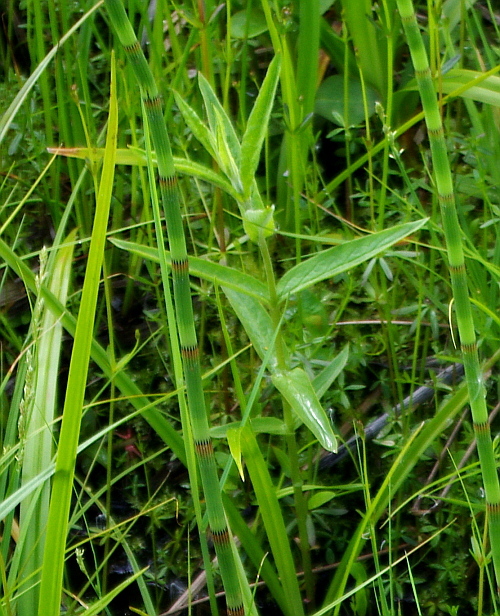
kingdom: Plantae
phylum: Tracheophyta
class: Magnoliopsida
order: Ericales
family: Primulaceae
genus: Lysimachia
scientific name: Lysimachia vulgaris
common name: Yellow loosestrife
